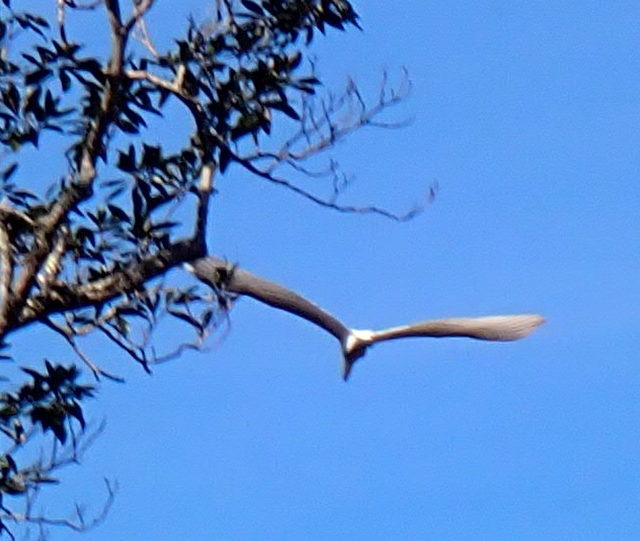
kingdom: Animalia
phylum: Chordata
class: Aves
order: Pelecaniformes
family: Ardeidae
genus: Ardea
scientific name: Ardea alba
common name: Great egret
